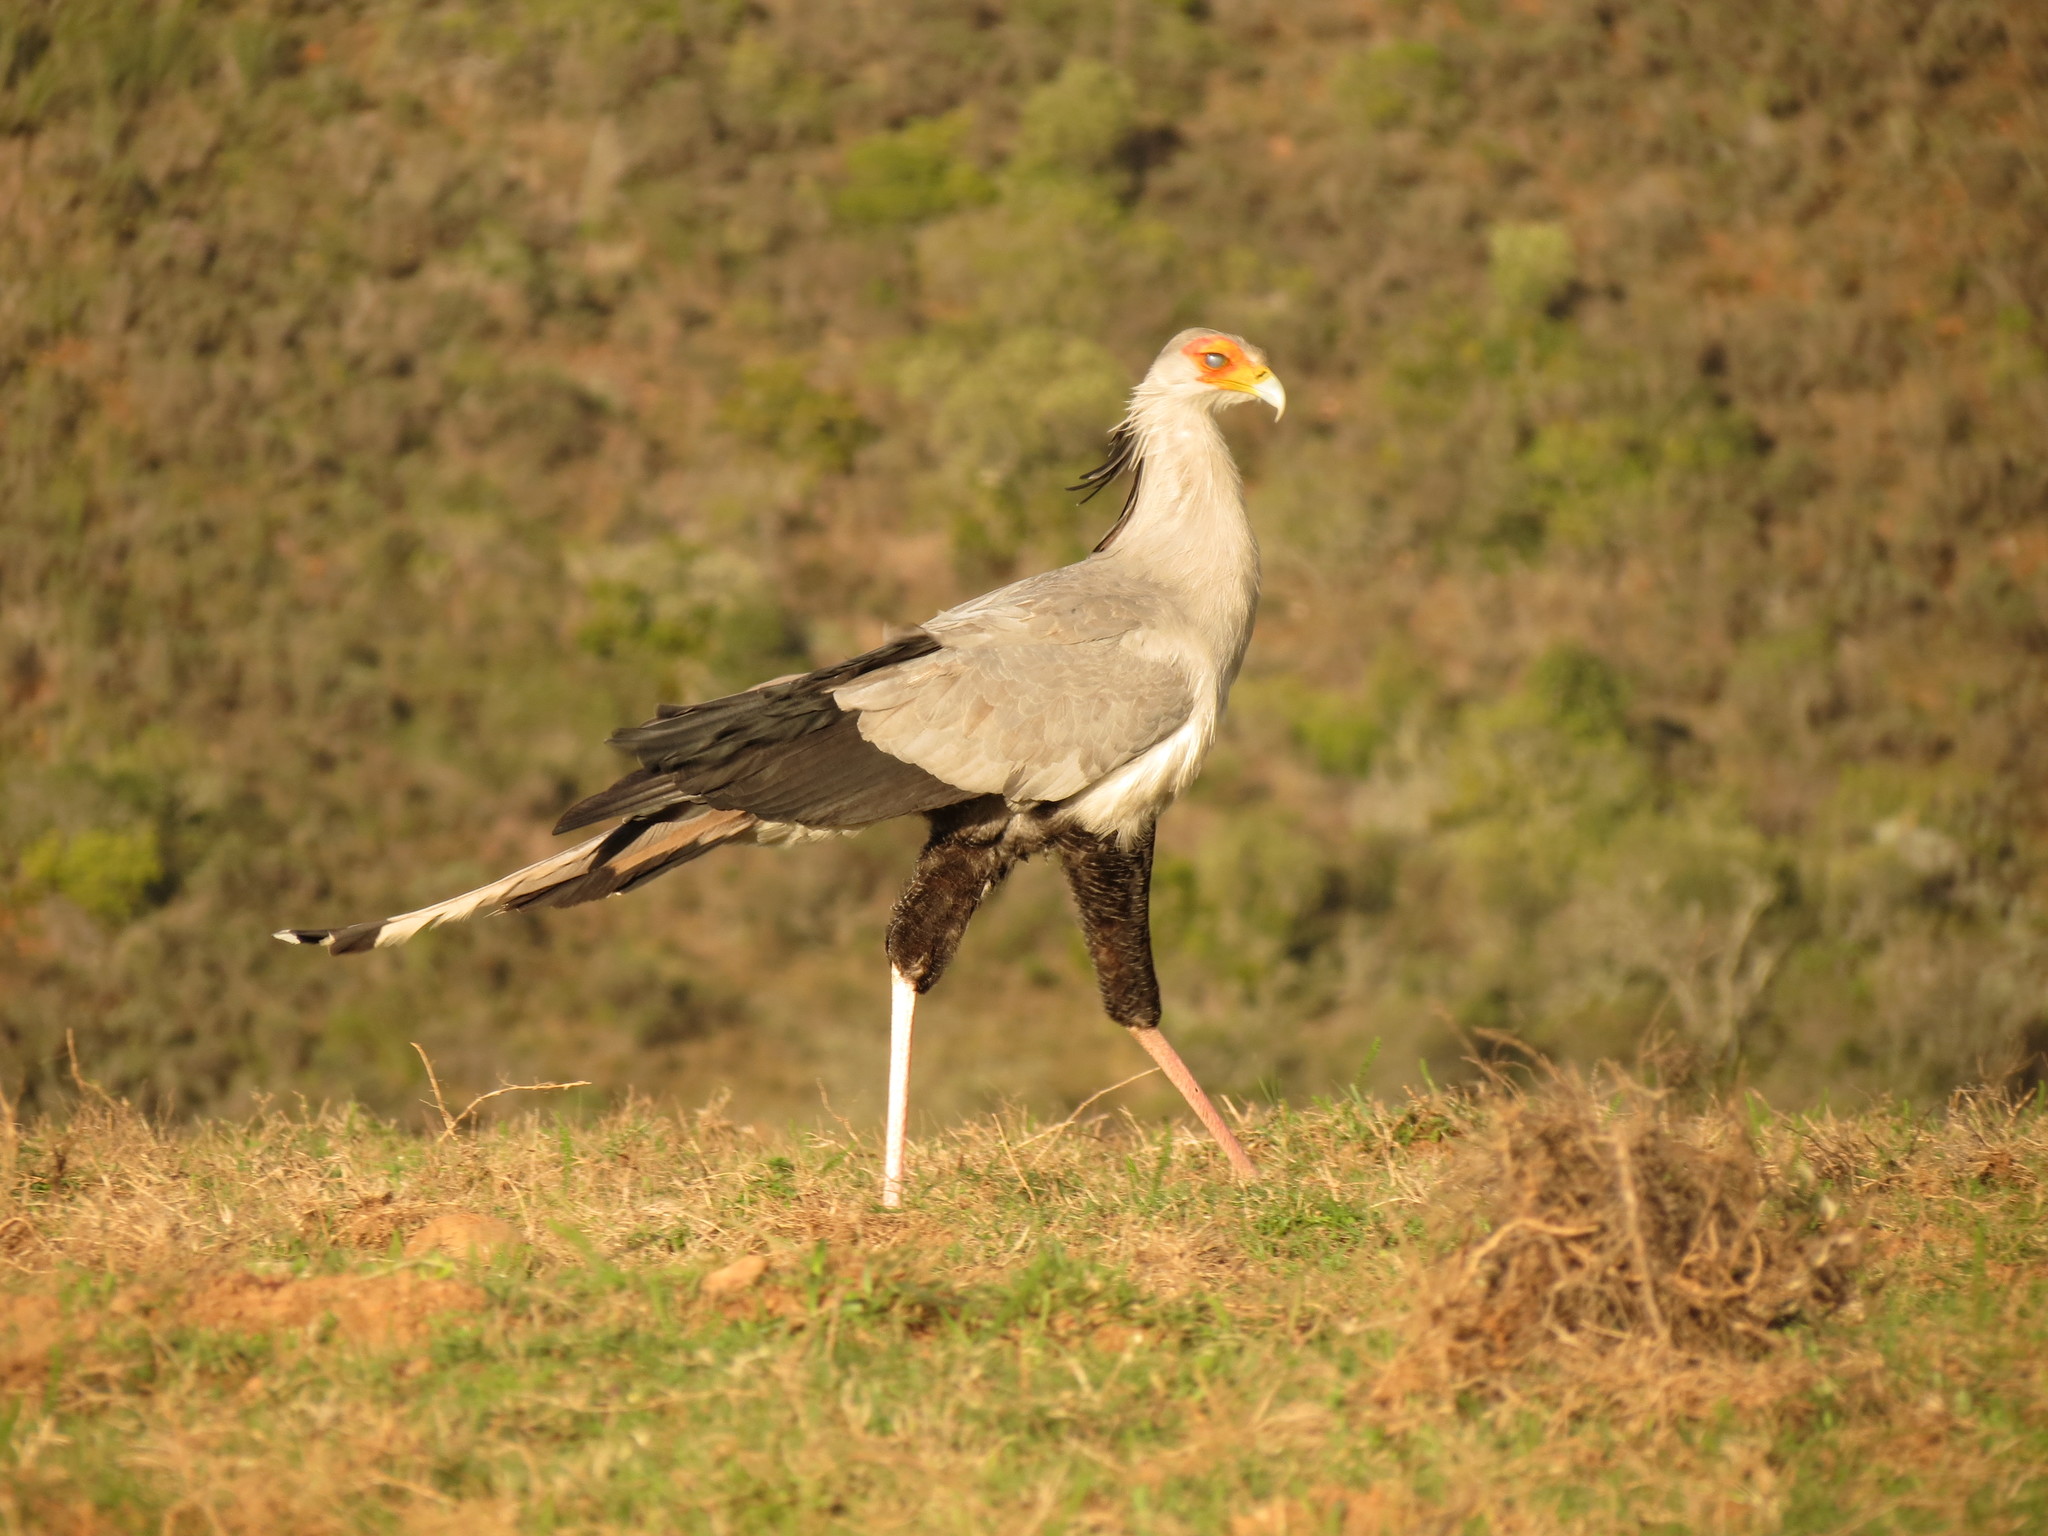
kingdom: Animalia
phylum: Chordata
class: Aves
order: Accipitriformes
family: Sagittariidae
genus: Sagittarius
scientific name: Sagittarius serpentarius
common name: Secretarybird
